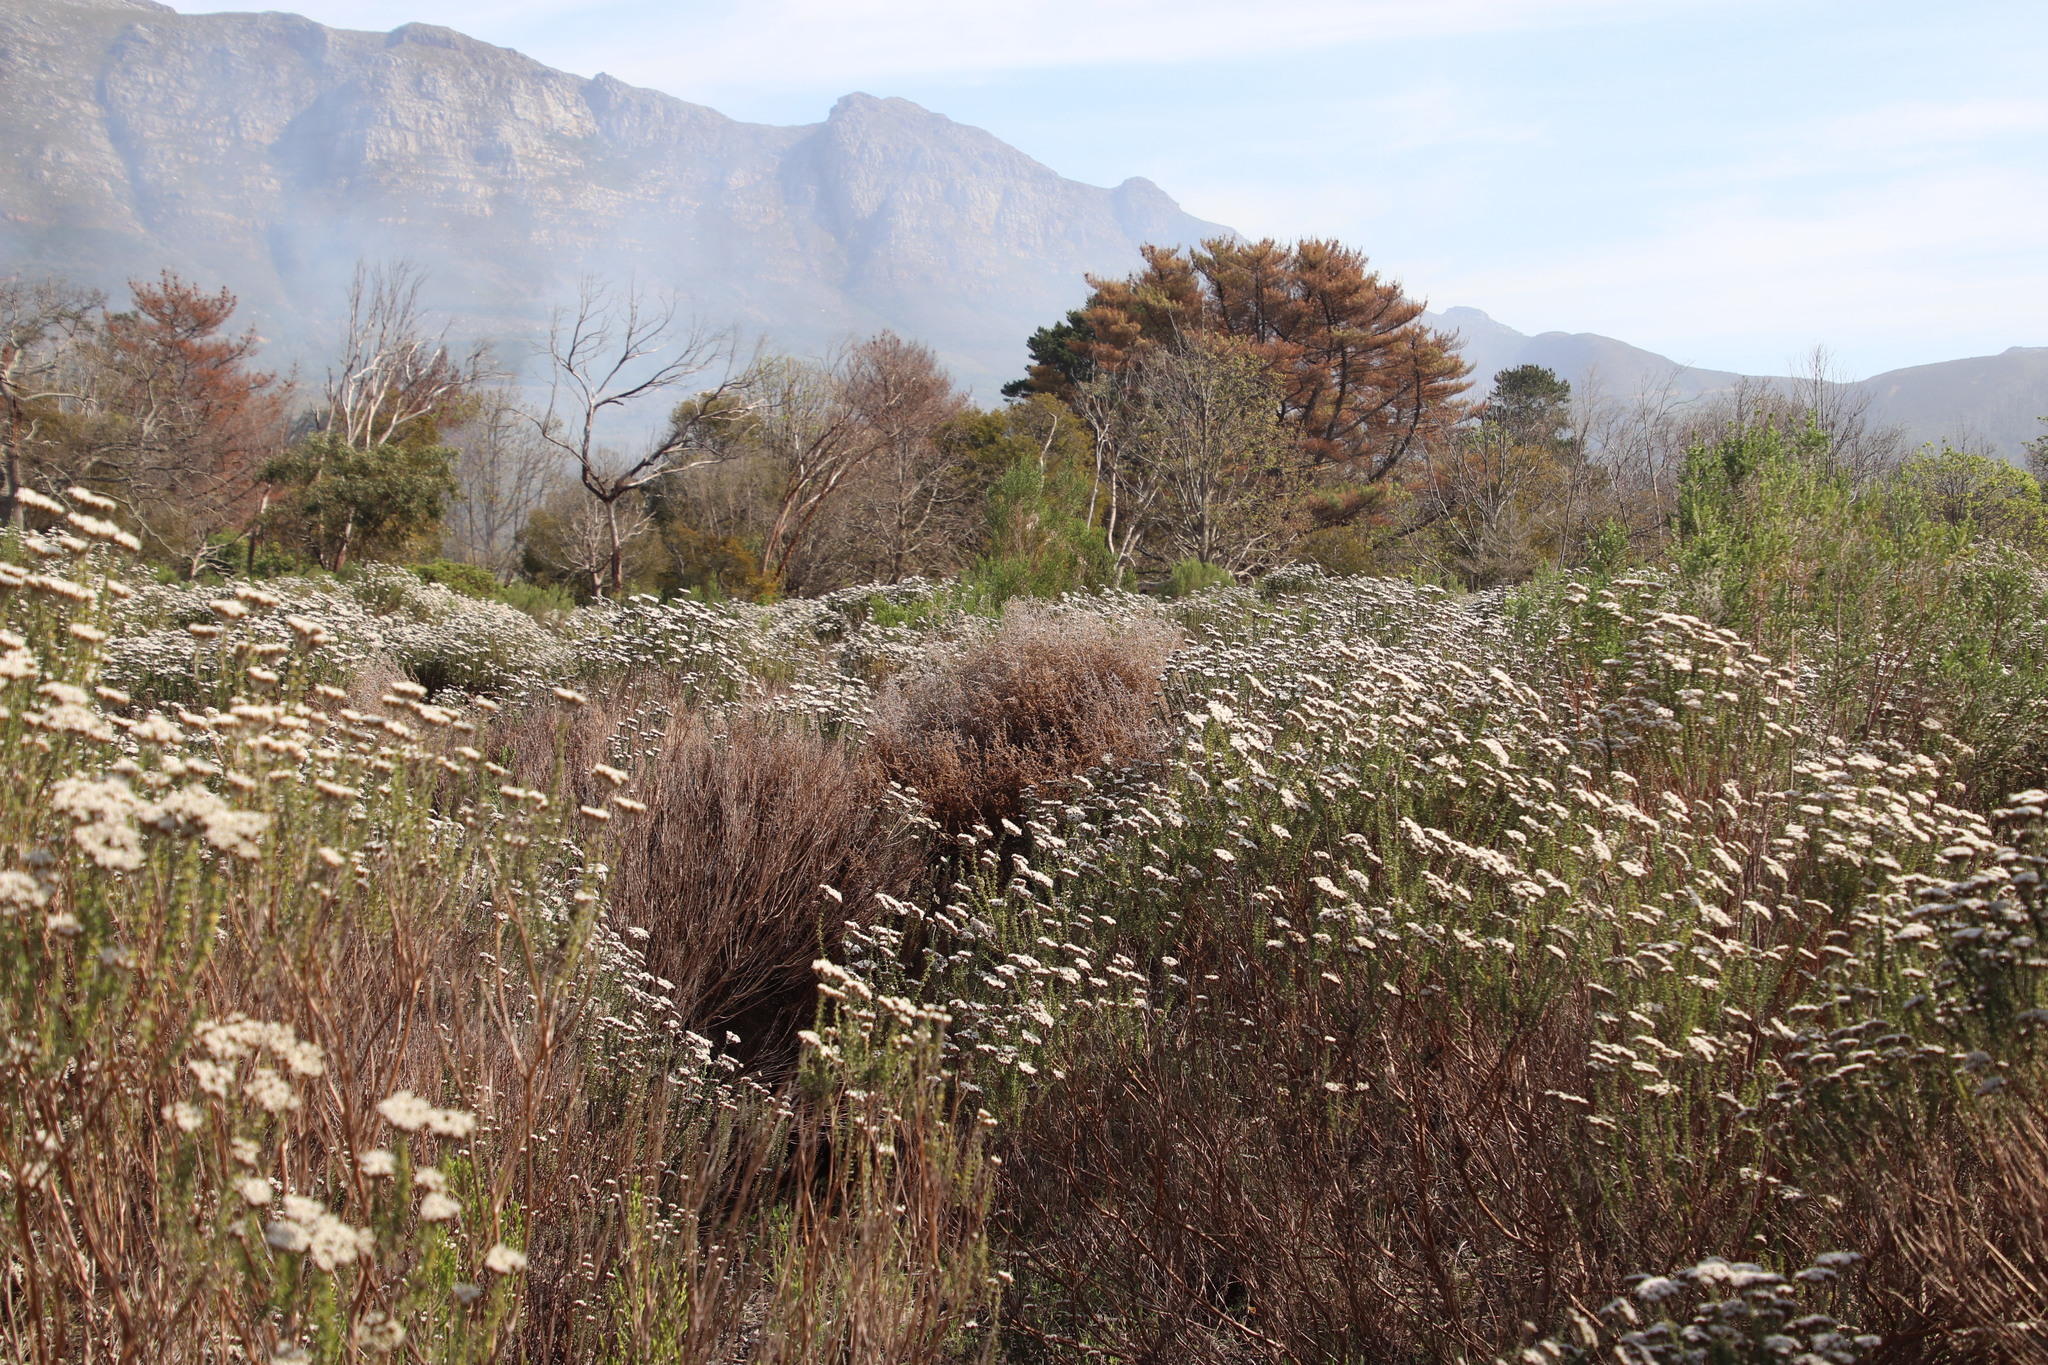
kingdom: Plantae
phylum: Tracheophyta
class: Magnoliopsida
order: Asterales
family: Asteraceae
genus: Seriphium
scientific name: Seriphium plumosum
